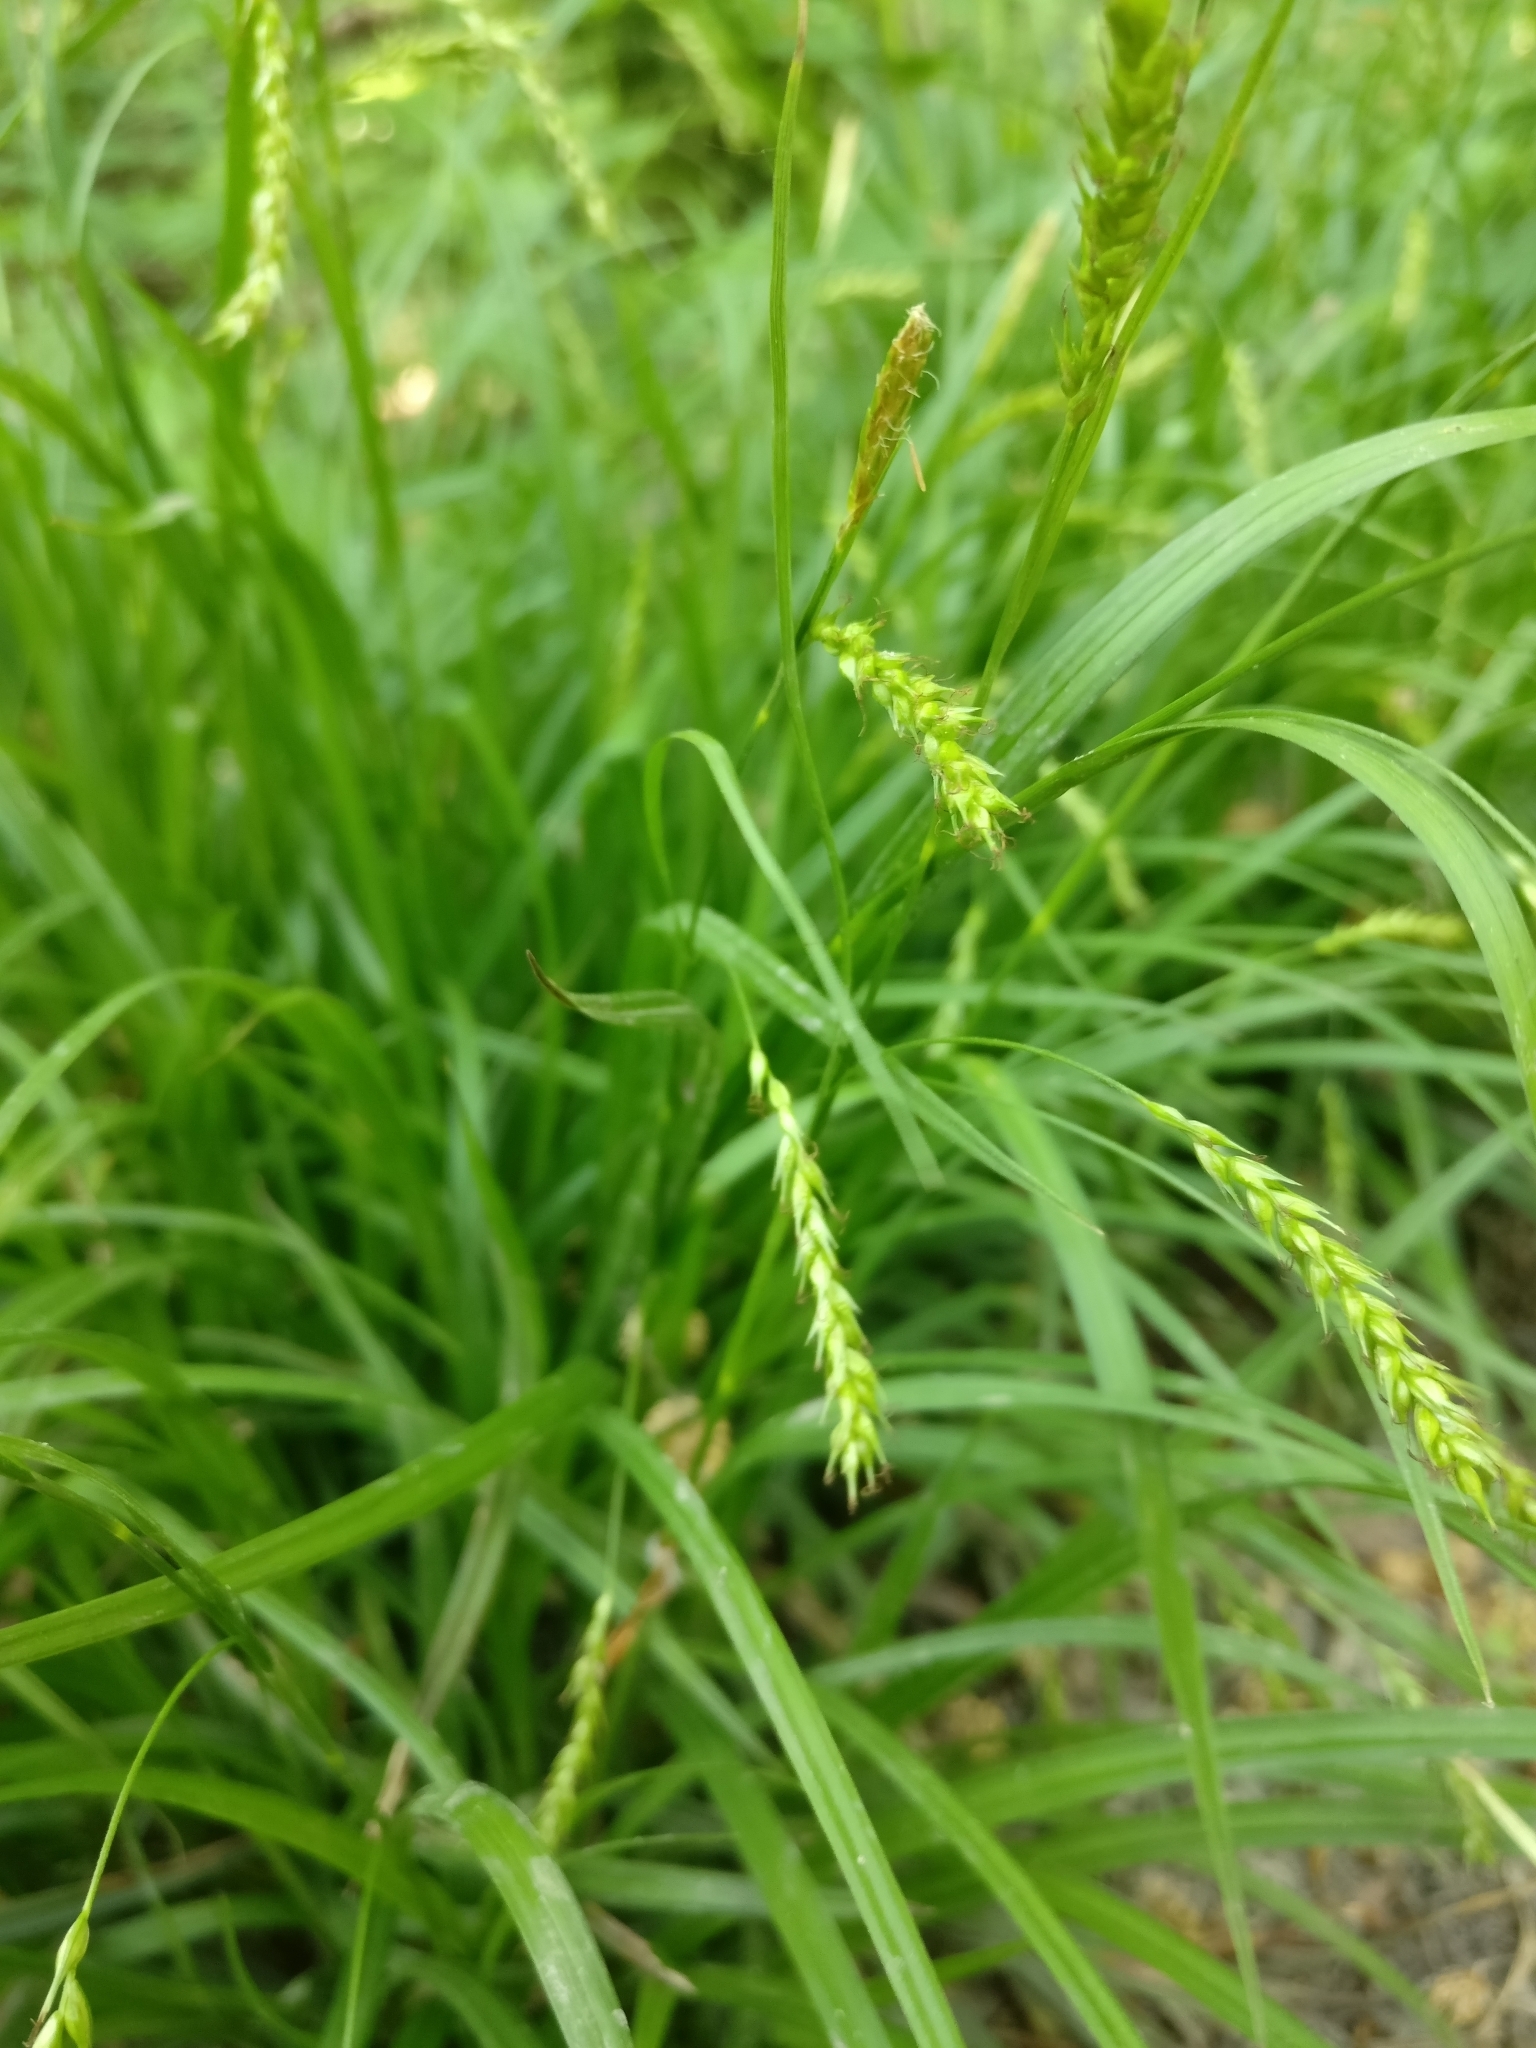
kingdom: Plantae
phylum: Tracheophyta
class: Liliopsida
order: Poales
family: Cyperaceae
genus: Carex
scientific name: Carex sylvatica
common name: Wood-sedge
